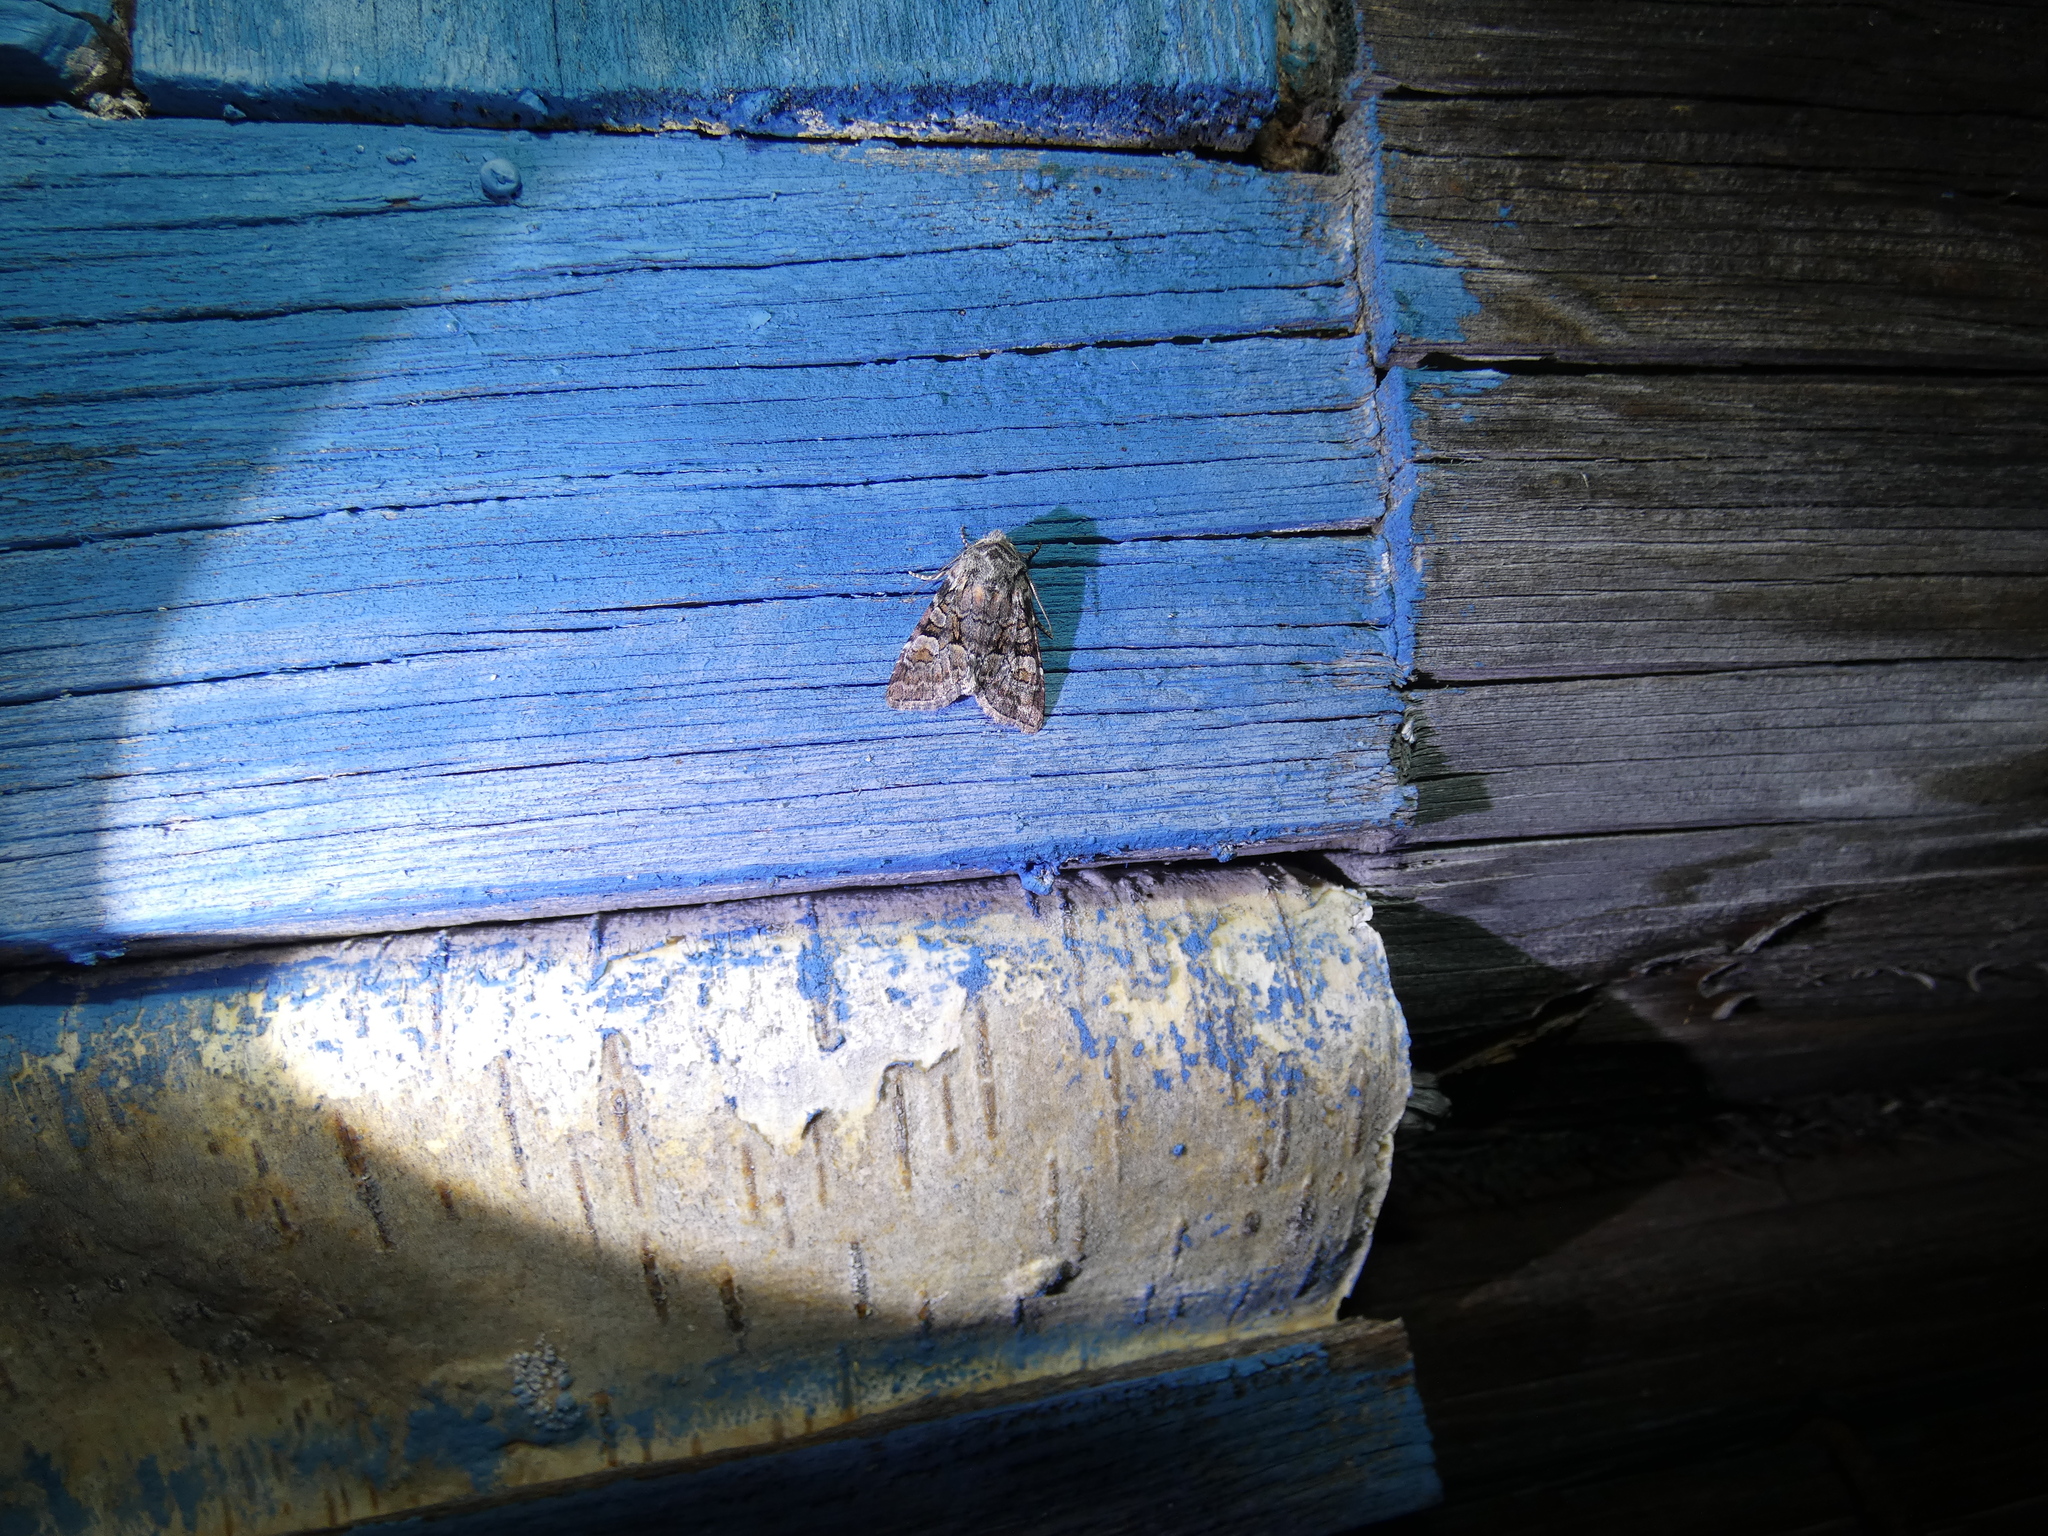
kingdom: Animalia
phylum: Arthropoda
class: Insecta
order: Lepidoptera
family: Noctuidae
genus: Brachylomia
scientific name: Brachylomia viminalis
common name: Minor shoulder-knot
